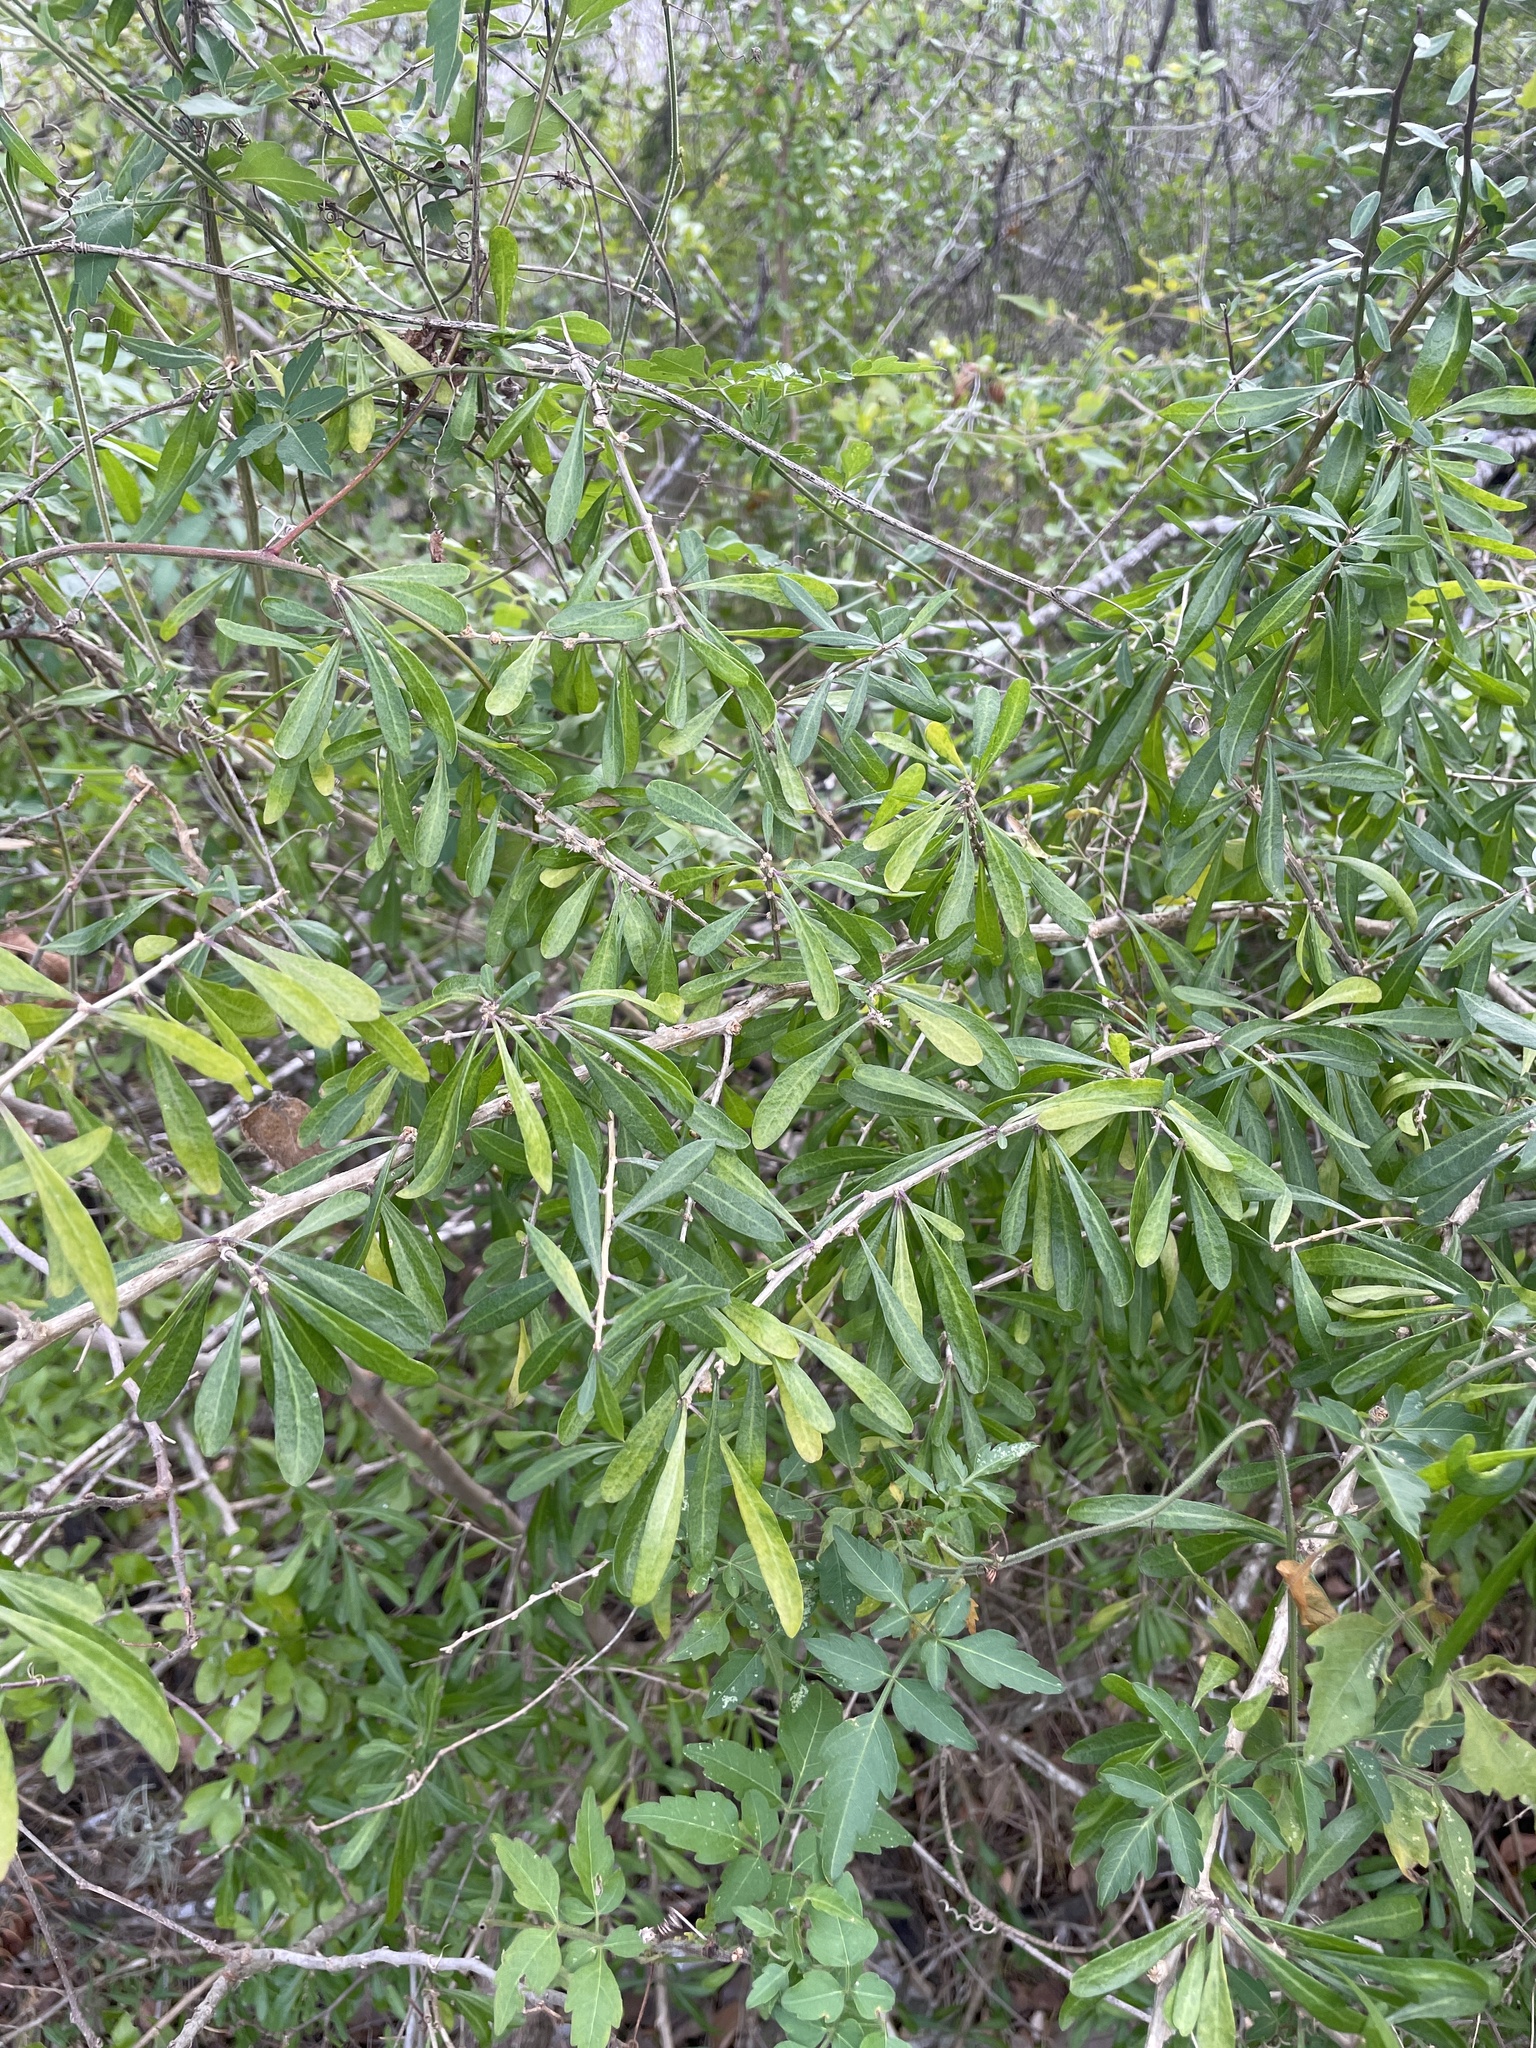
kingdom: Plantae
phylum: Tracheophyta
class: Magnoliopsida
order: Lamiales
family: Oleaceae
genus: Forestiera
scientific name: Forestiera angustifolia
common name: Elbowbush
